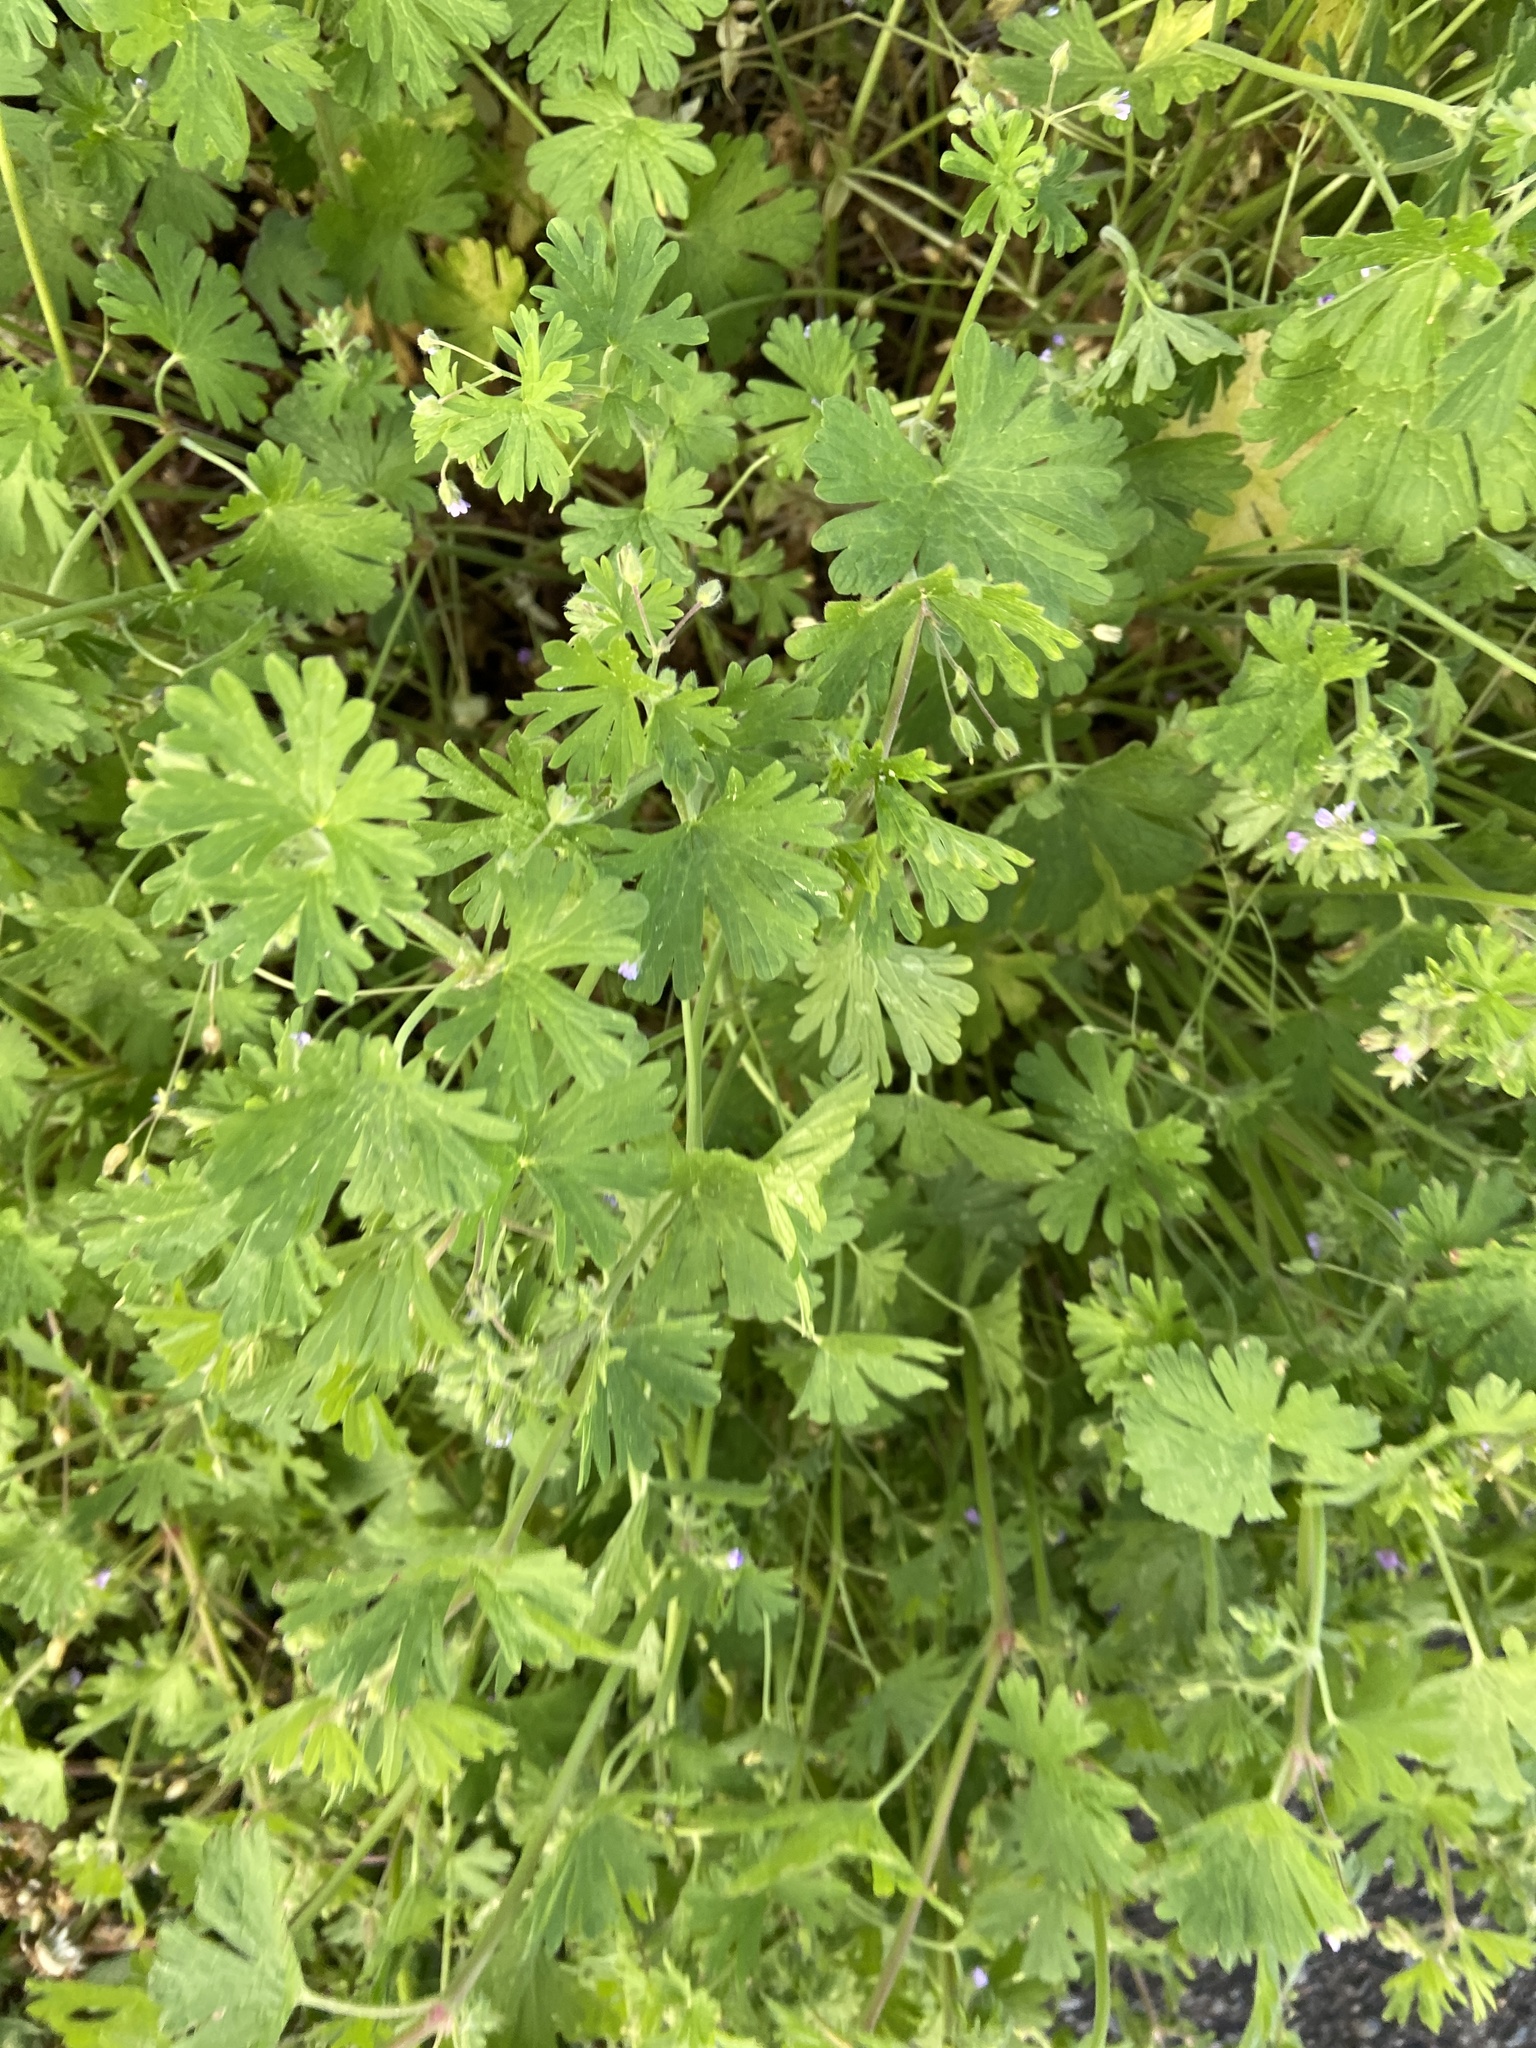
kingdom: Plantae
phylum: Tracheophyta
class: Magnoliopsida
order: Geraniales
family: Geraniaceae
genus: Geranium
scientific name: Geranium pusillum
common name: Small geranium
